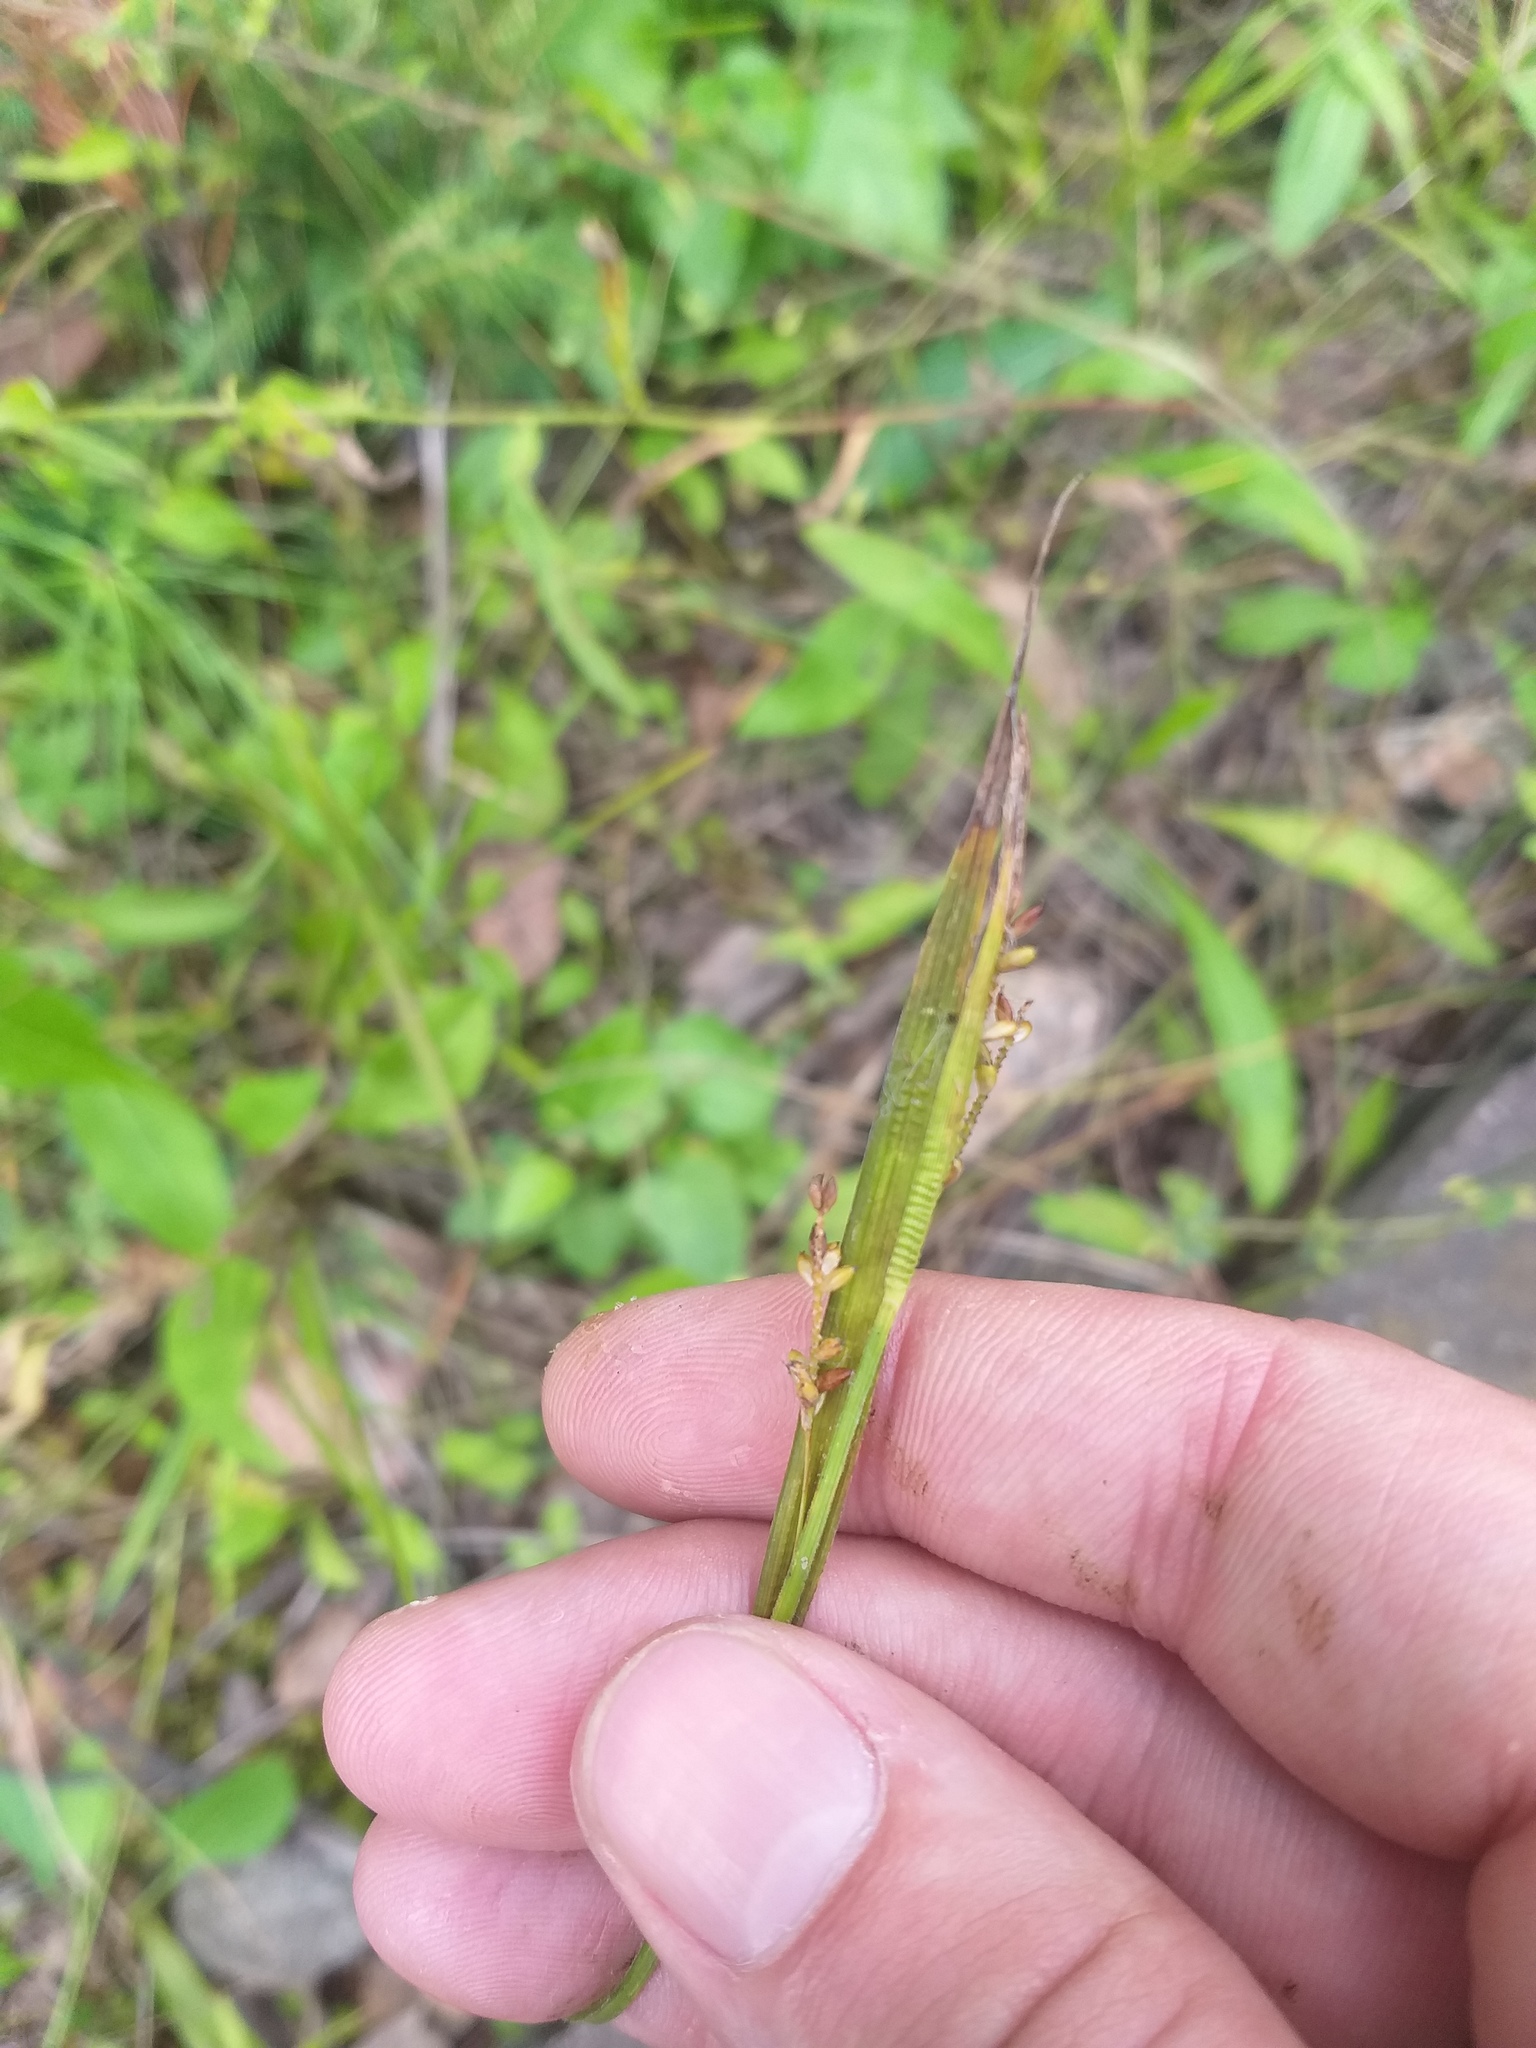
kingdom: Plantae
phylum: Tracheophyta
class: Liliopsida
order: Poales
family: Cyperaceae
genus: Carex
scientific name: Carex pallescens
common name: Pale sedge
